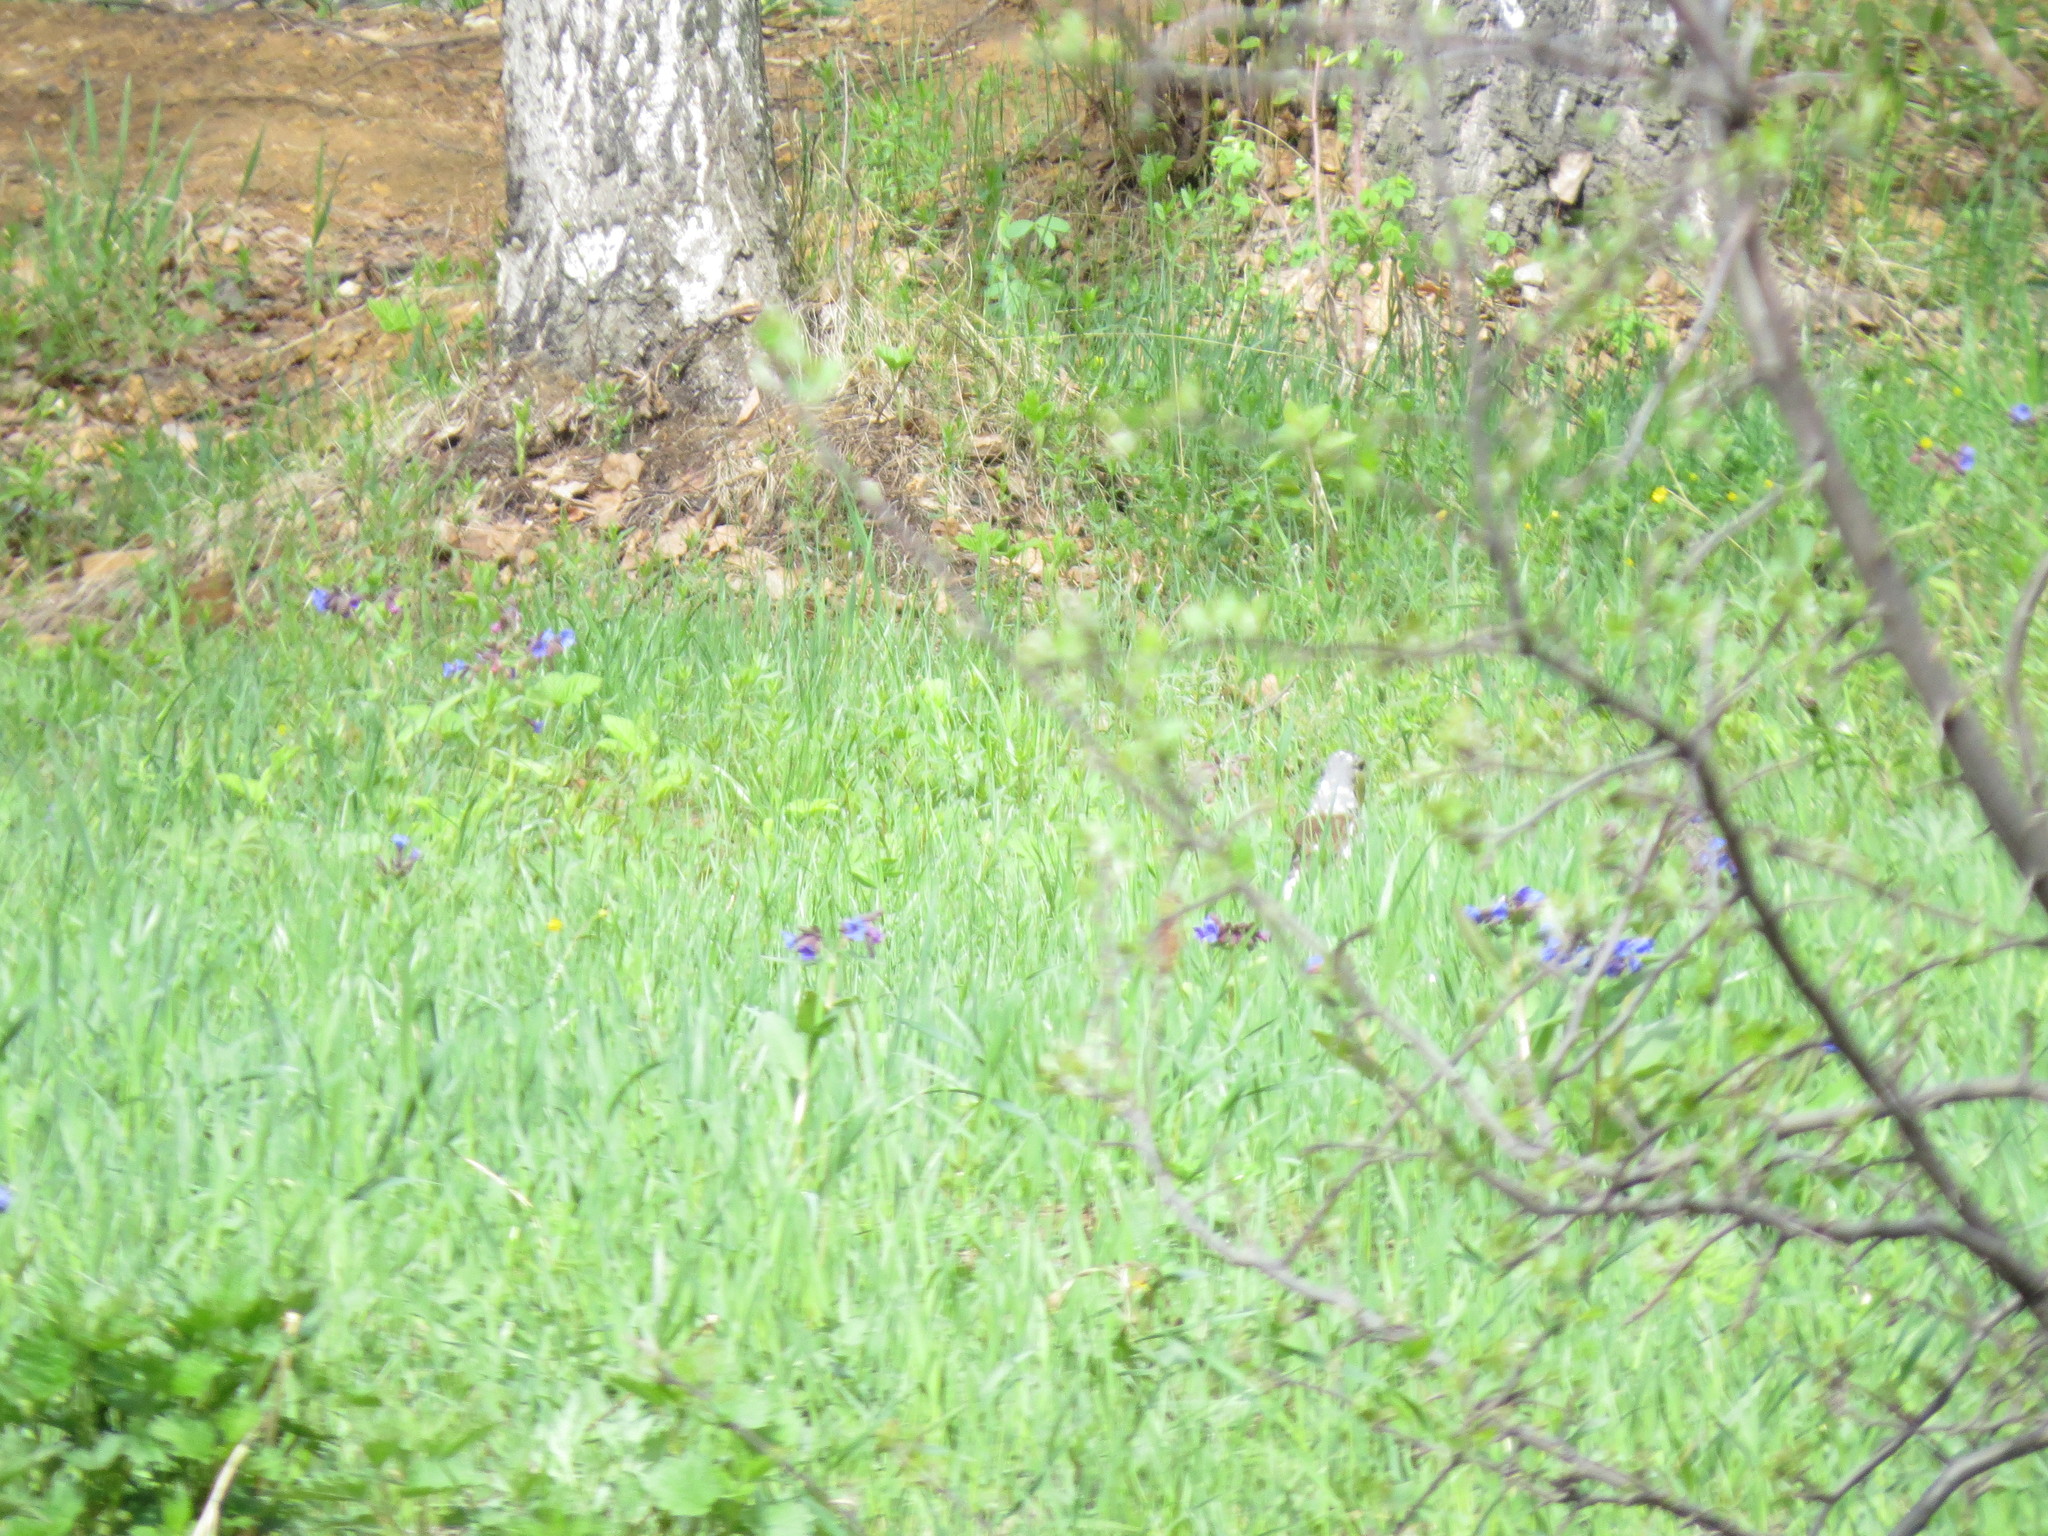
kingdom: Animalia
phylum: Chordata
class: Aves
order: Passeriformes
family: Turdidae
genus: Turdus
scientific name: Turdus pilaris
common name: Fieldfare
